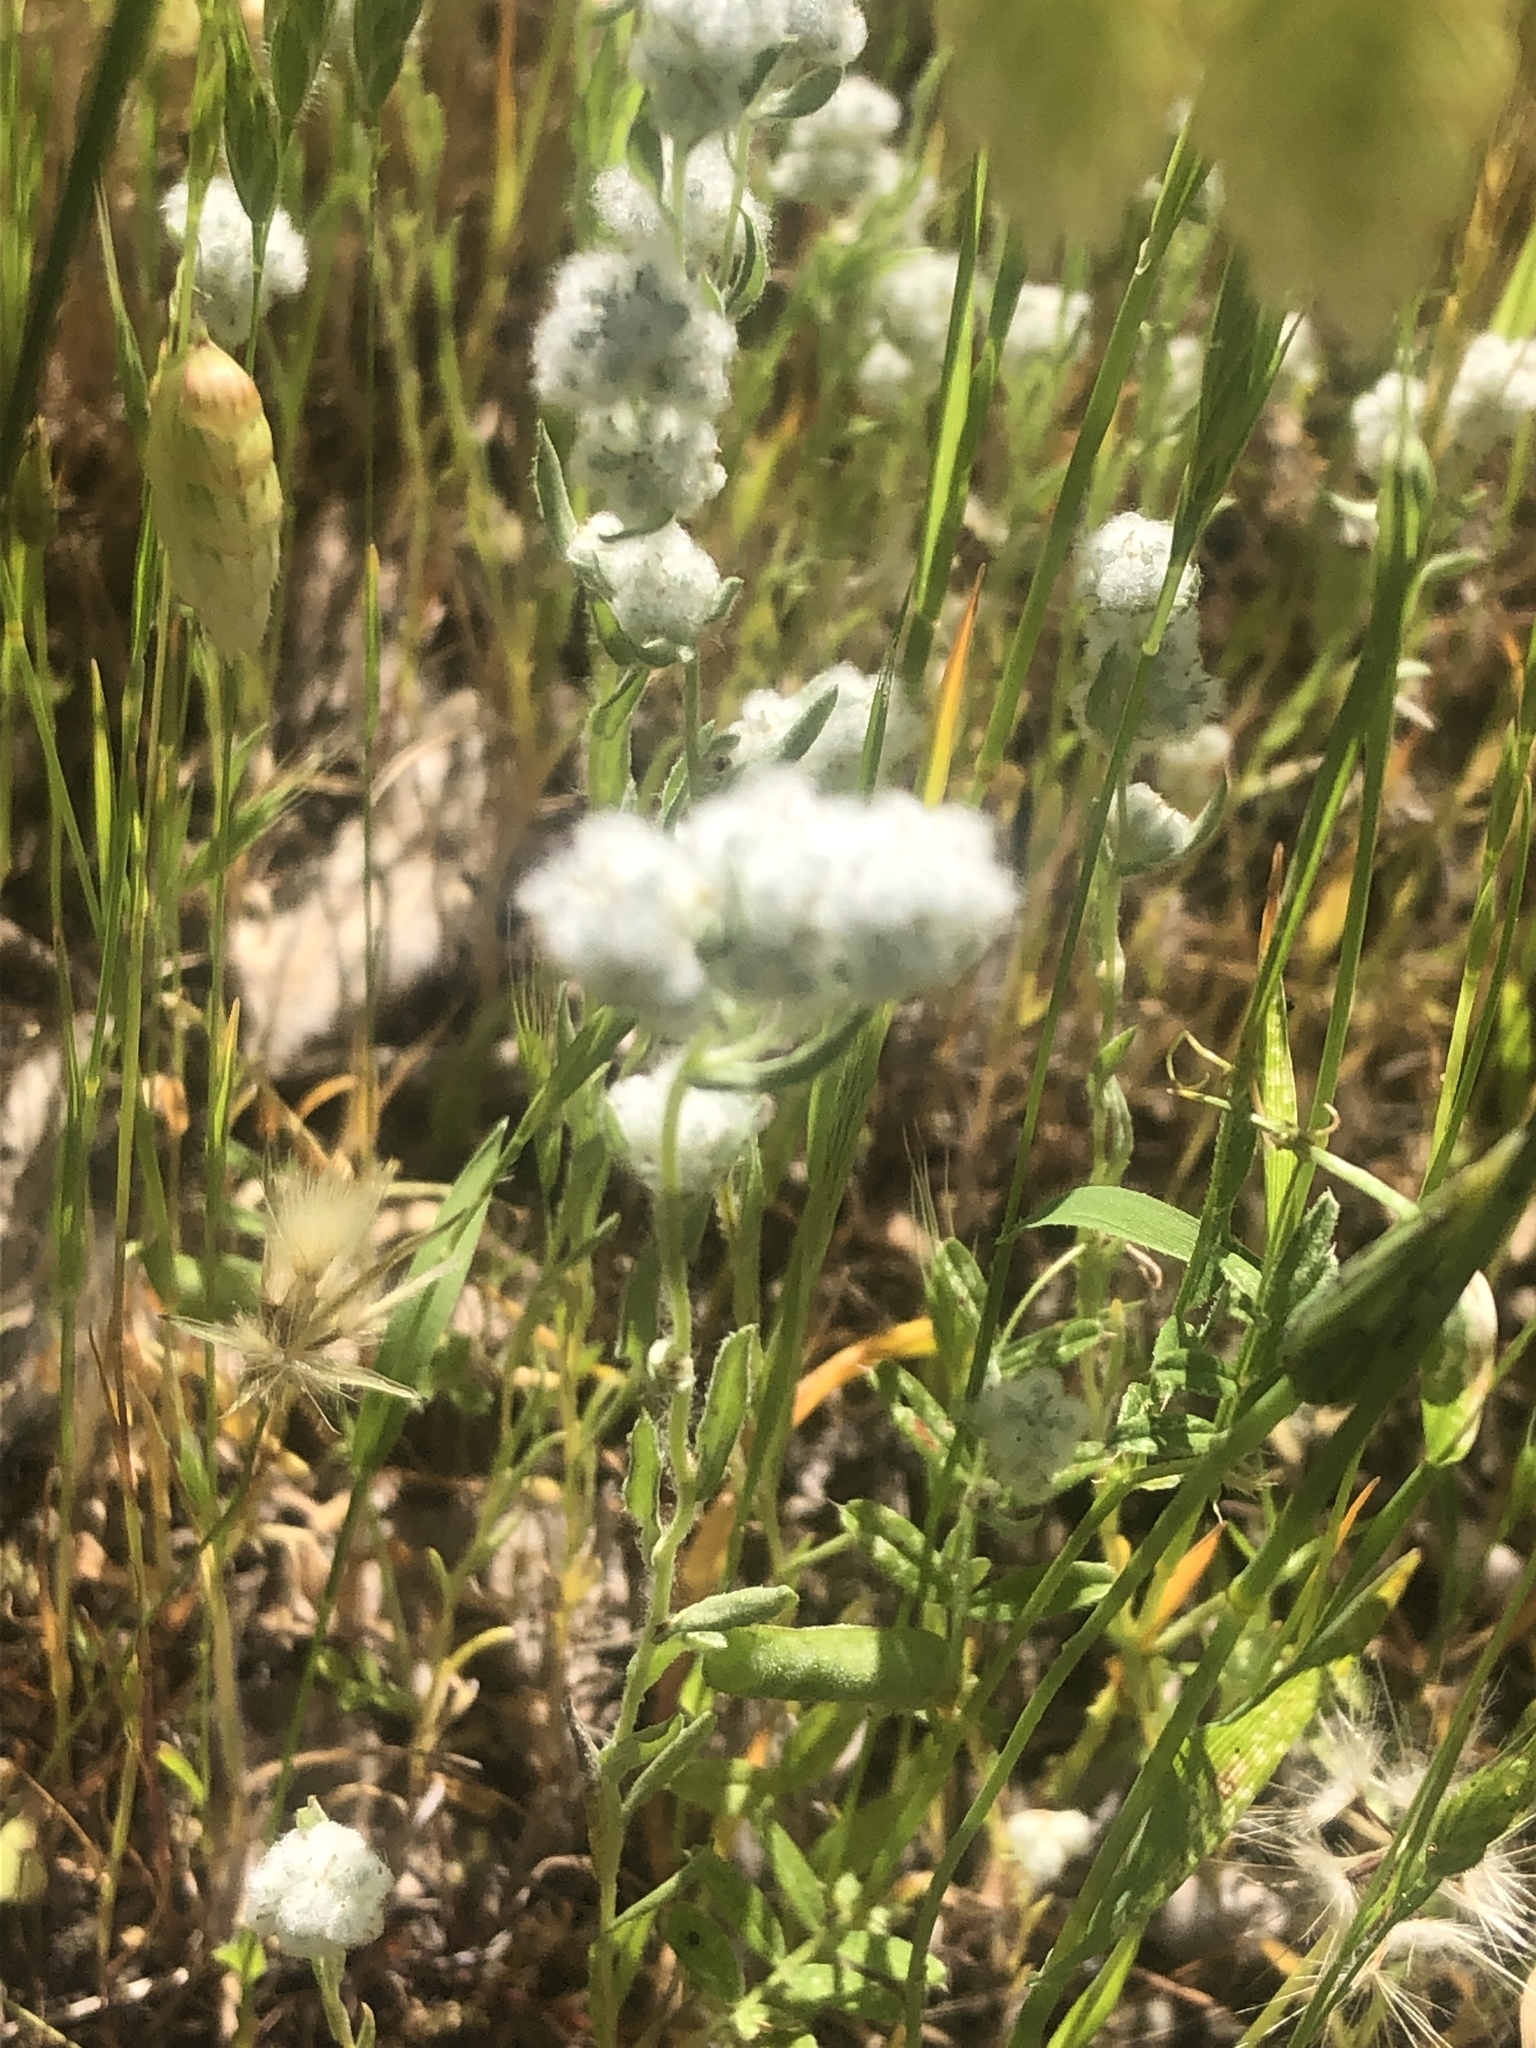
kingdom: Plantae
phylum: Tracheophyta
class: Magnoliopsida
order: Asterales
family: Asteraceae
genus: Bombycilaena
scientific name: Bombycilaena californica
